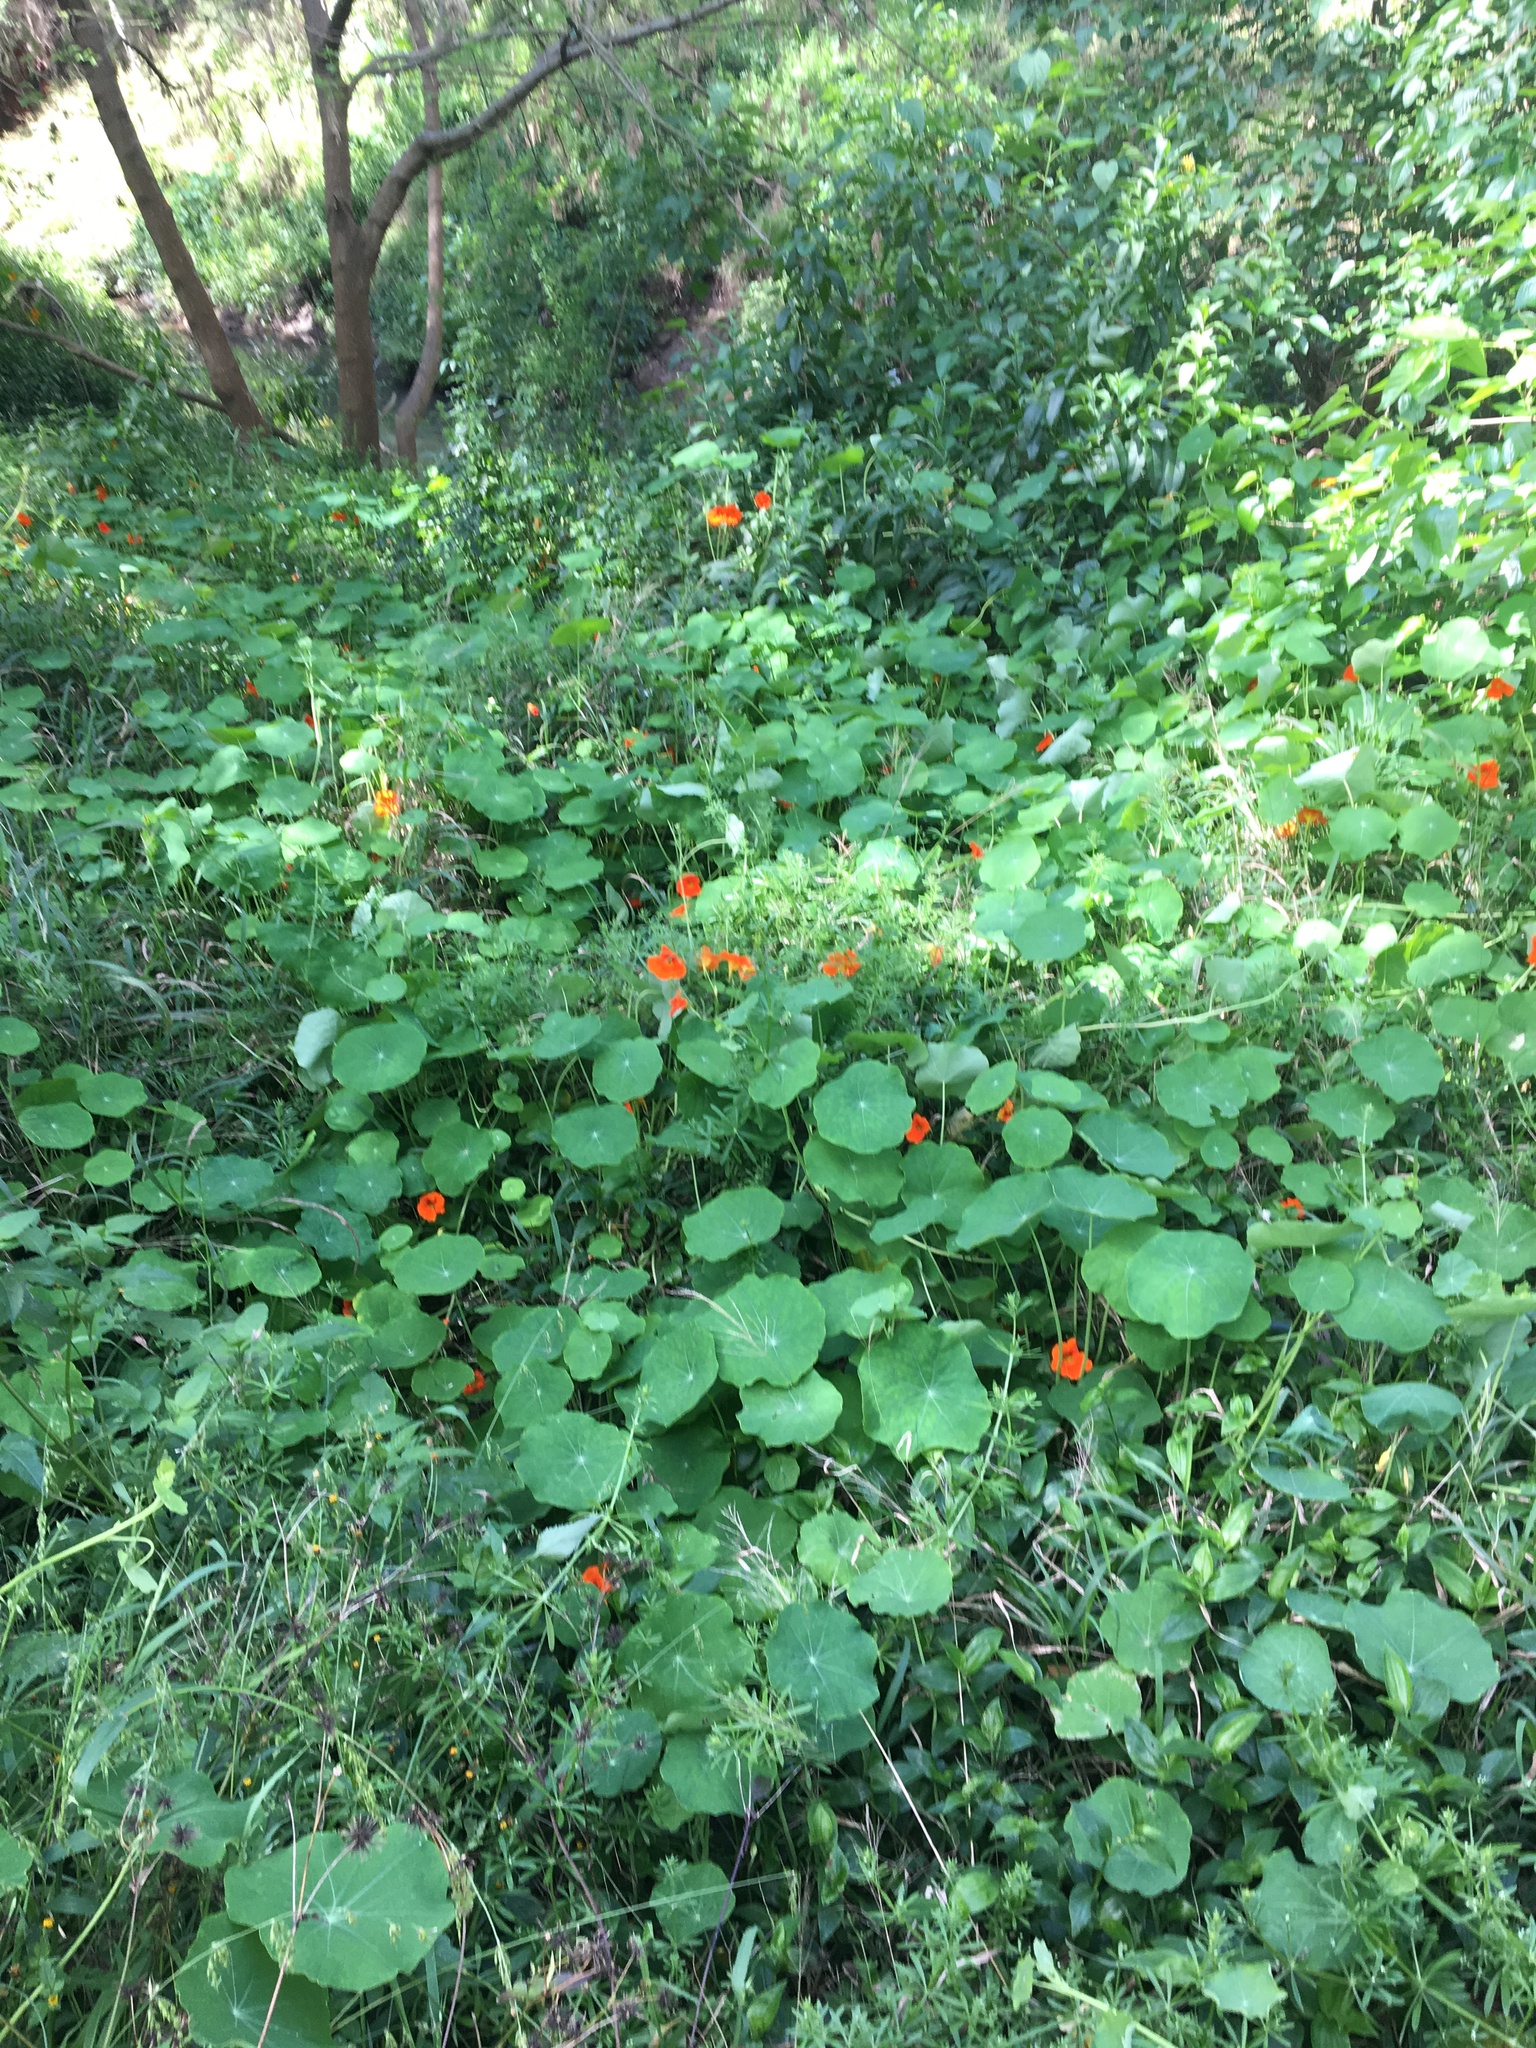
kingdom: Plantae
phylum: Tracheophyta
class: Magnoliopsida
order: Brassicales
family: Tropaeolaceae
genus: Tropaeolum
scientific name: Tropaeolum majus
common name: Nasturtium
